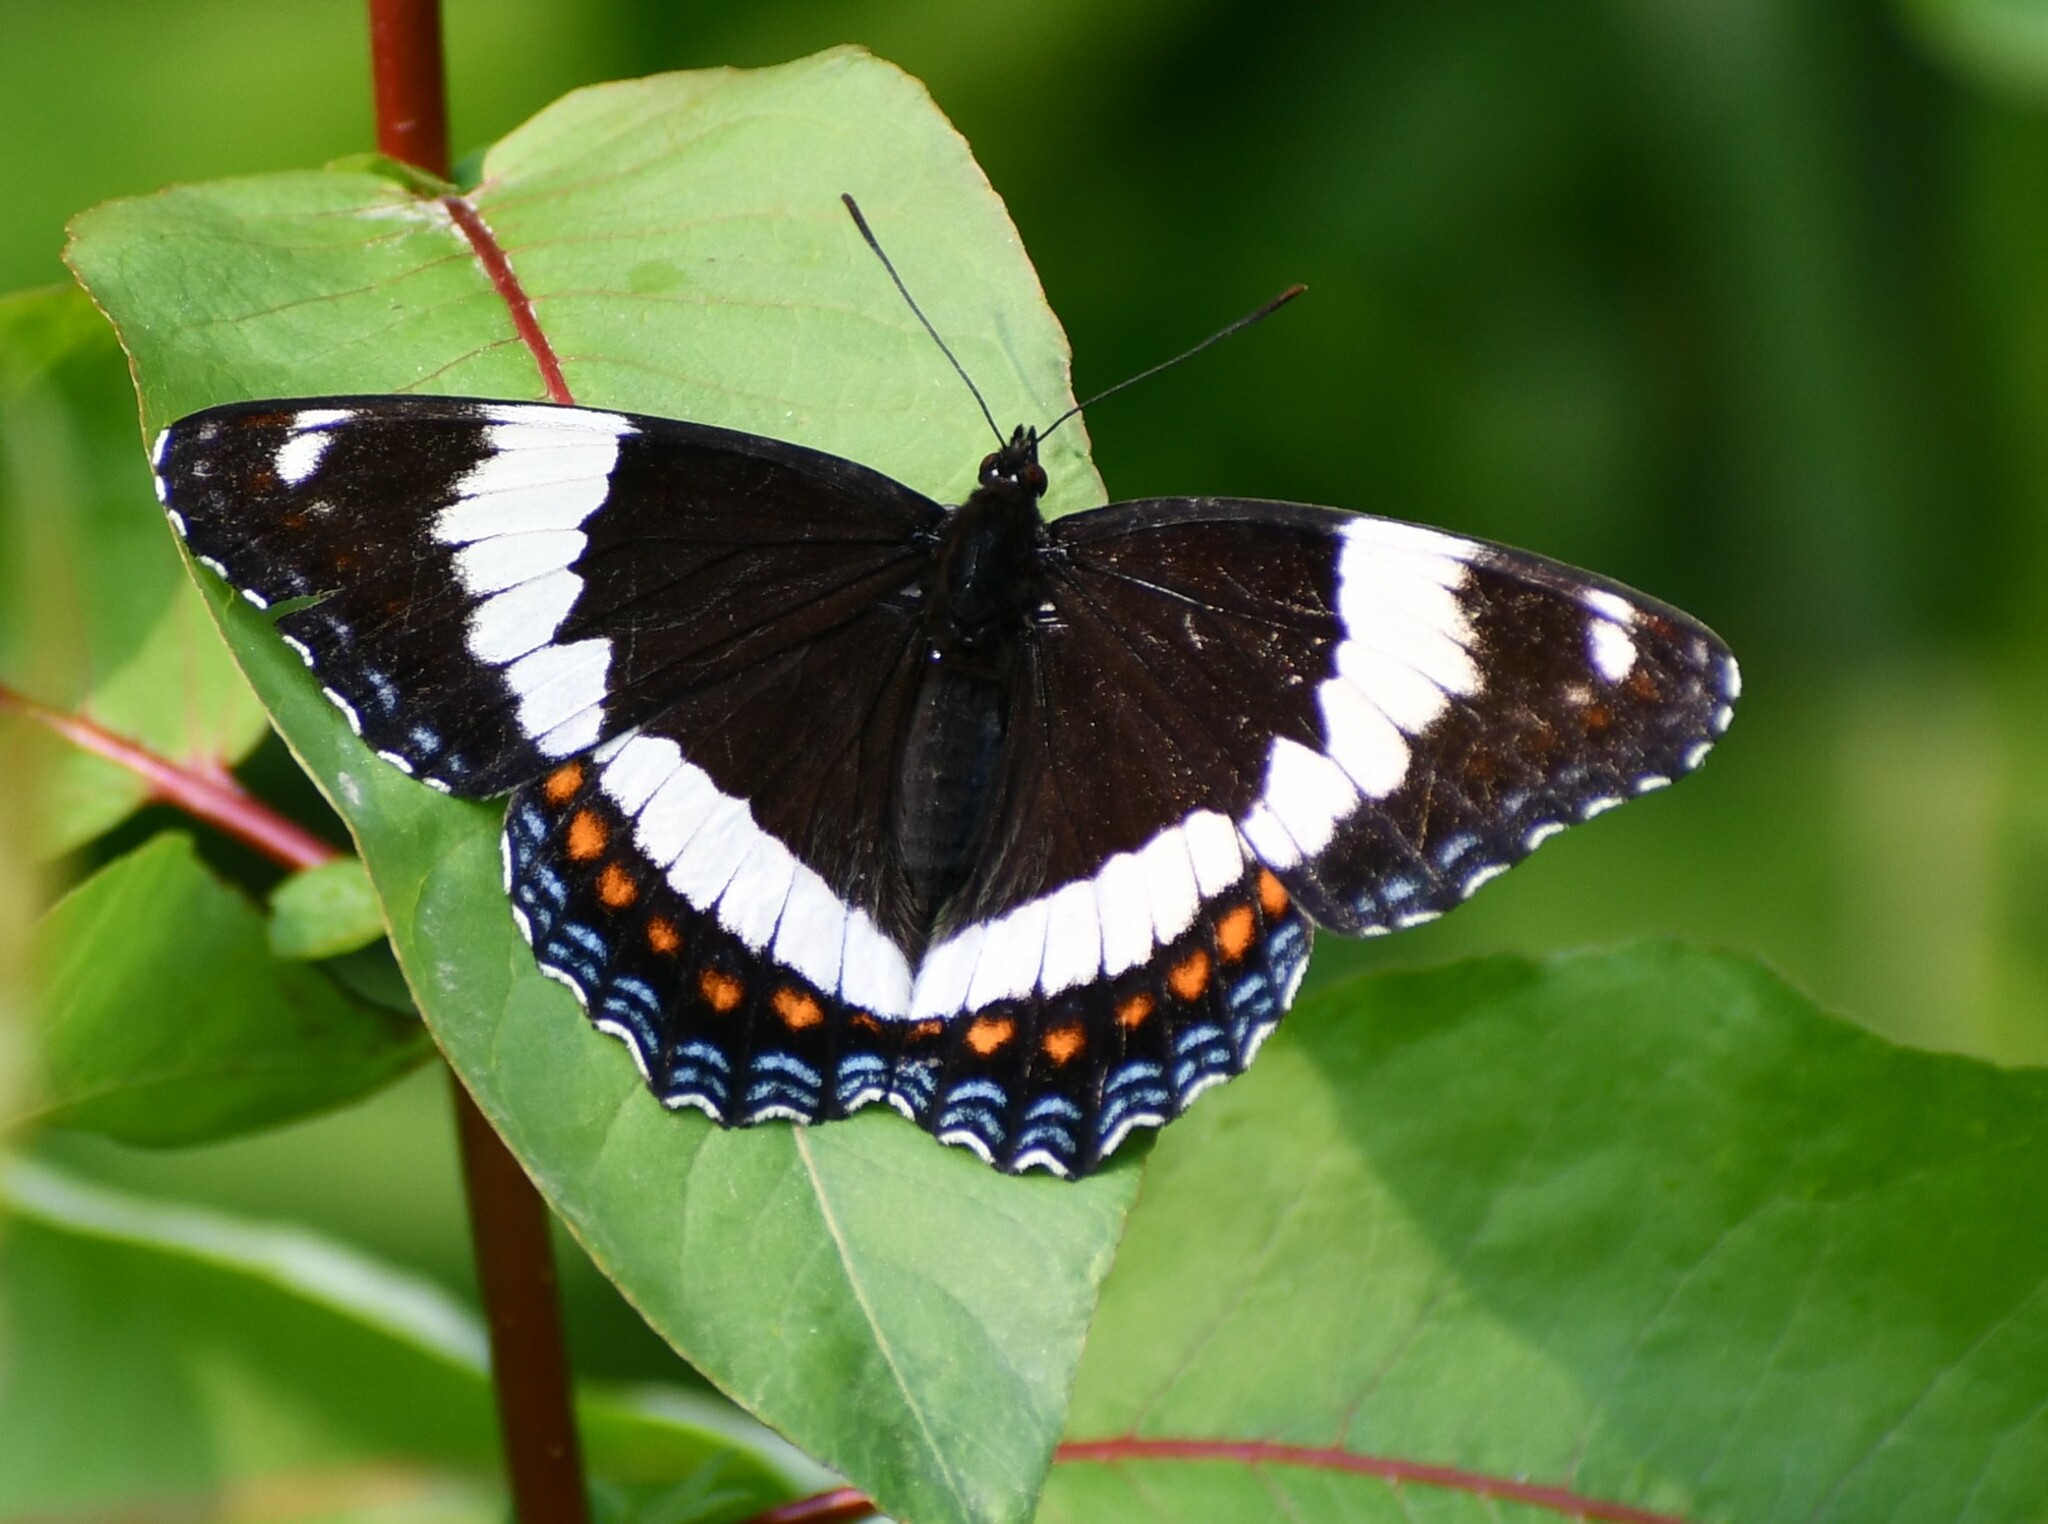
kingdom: Animalia
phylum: Arthropoda
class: Insecta
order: Lepidoptera
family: Nymphalidae
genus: Limenitis
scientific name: Limenitis arthemis
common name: Red-spotted admiral
